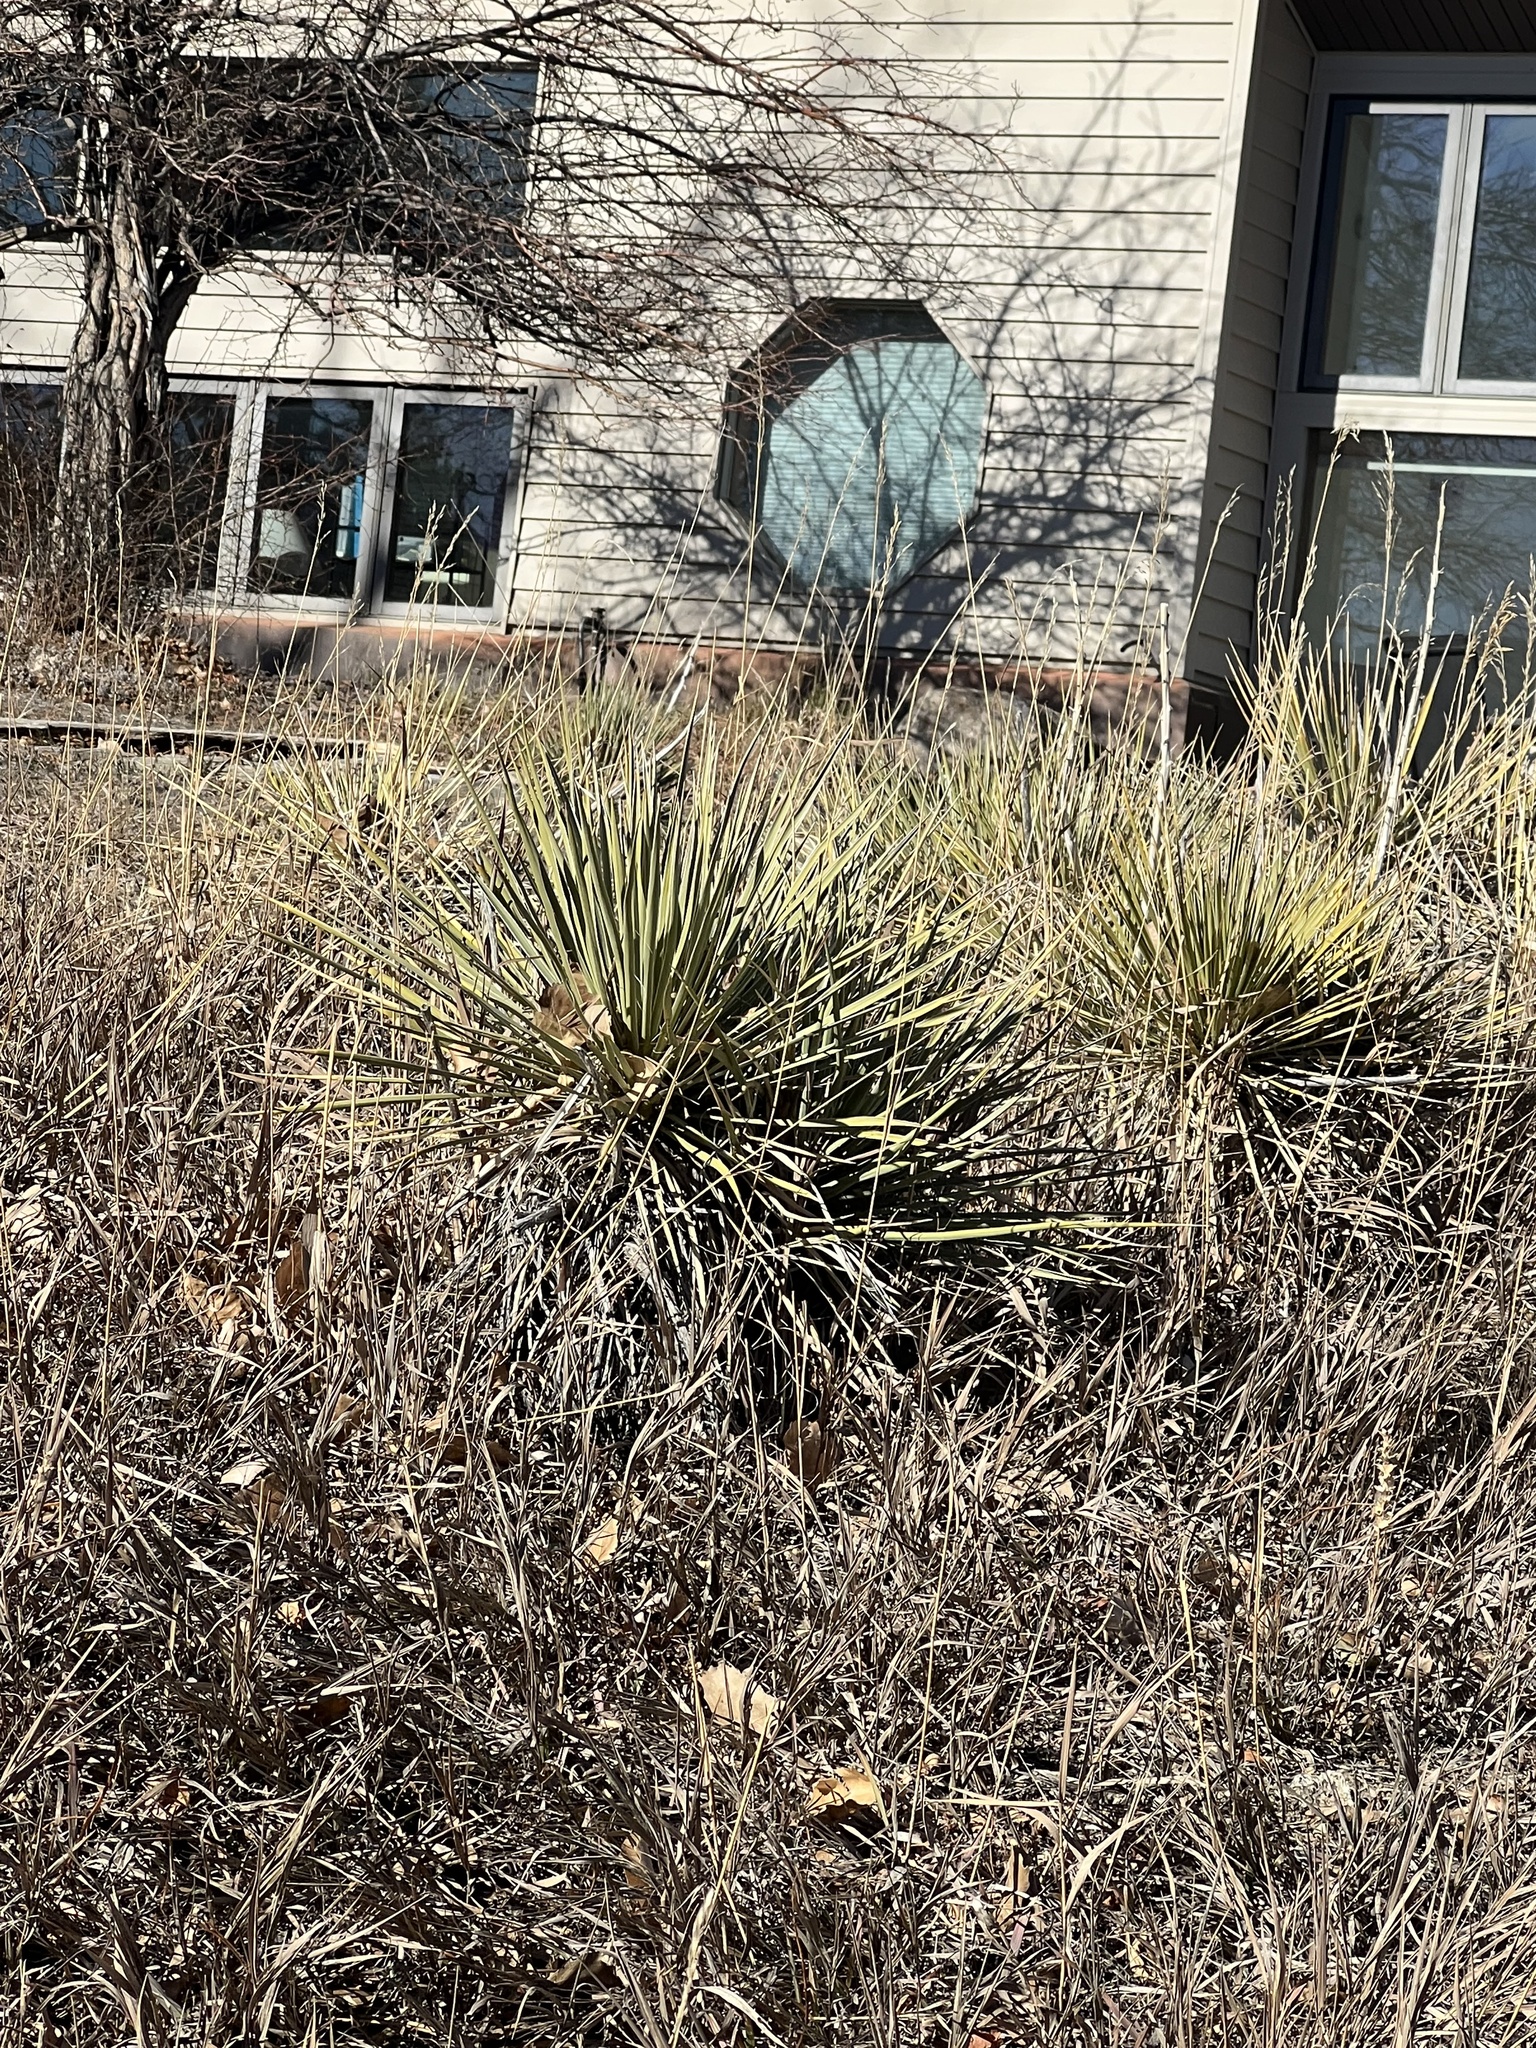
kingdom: Plantae
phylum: Tracheophyta
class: Liliopsida
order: Asparagales
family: Asparagaceae
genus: Yucca
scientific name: Yucca glauca
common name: Great plains yucca
